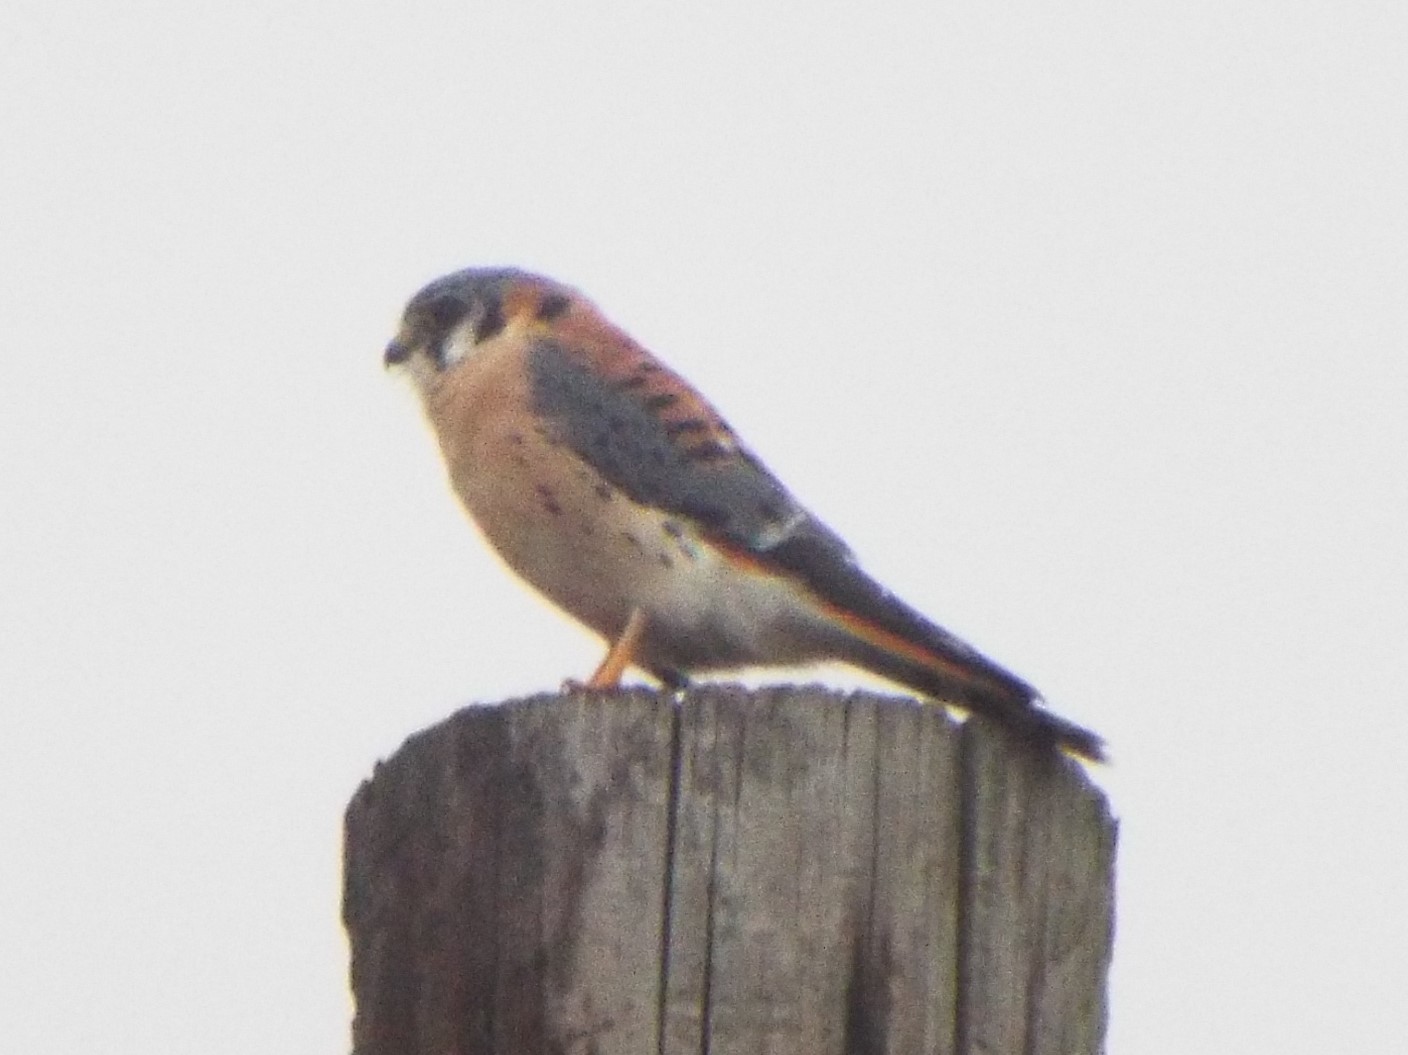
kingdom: Animalia
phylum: Chordata
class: Aves
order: Falconiformes
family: Falconidae
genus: Falco
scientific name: Falco sparverius
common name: American kestrel
